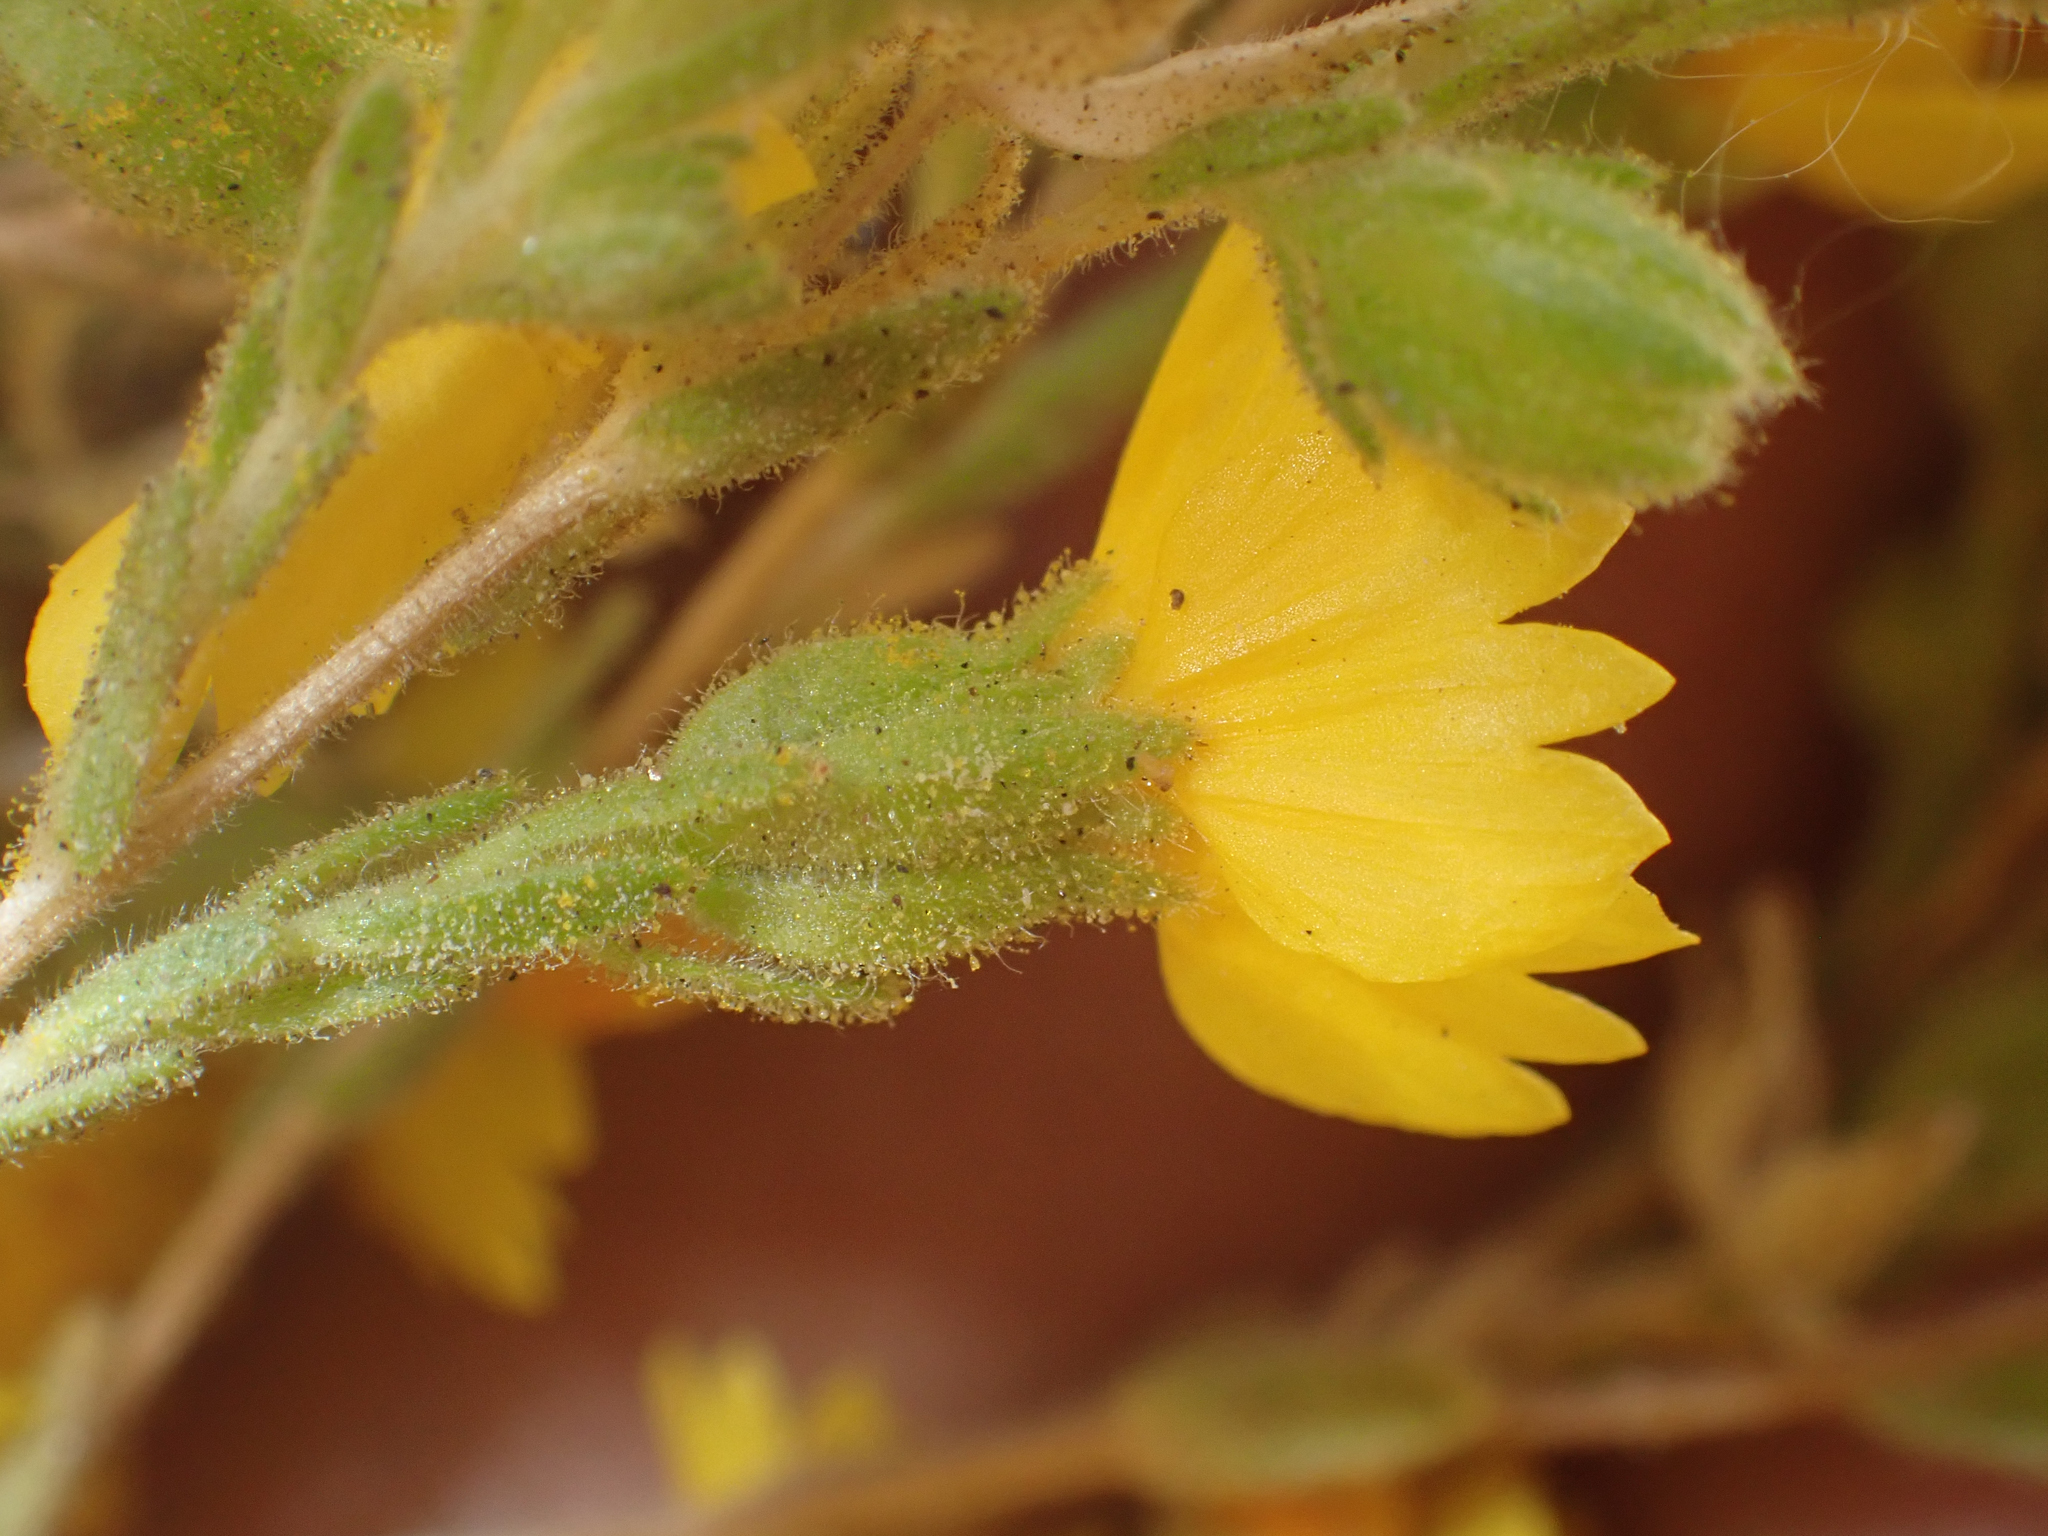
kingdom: Plantae
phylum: Tracheophyta
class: Magnoliopsida
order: Asterales
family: Asteraceae
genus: Deinandra
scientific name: Deinandra mohavensis
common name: Mojave tarplant
